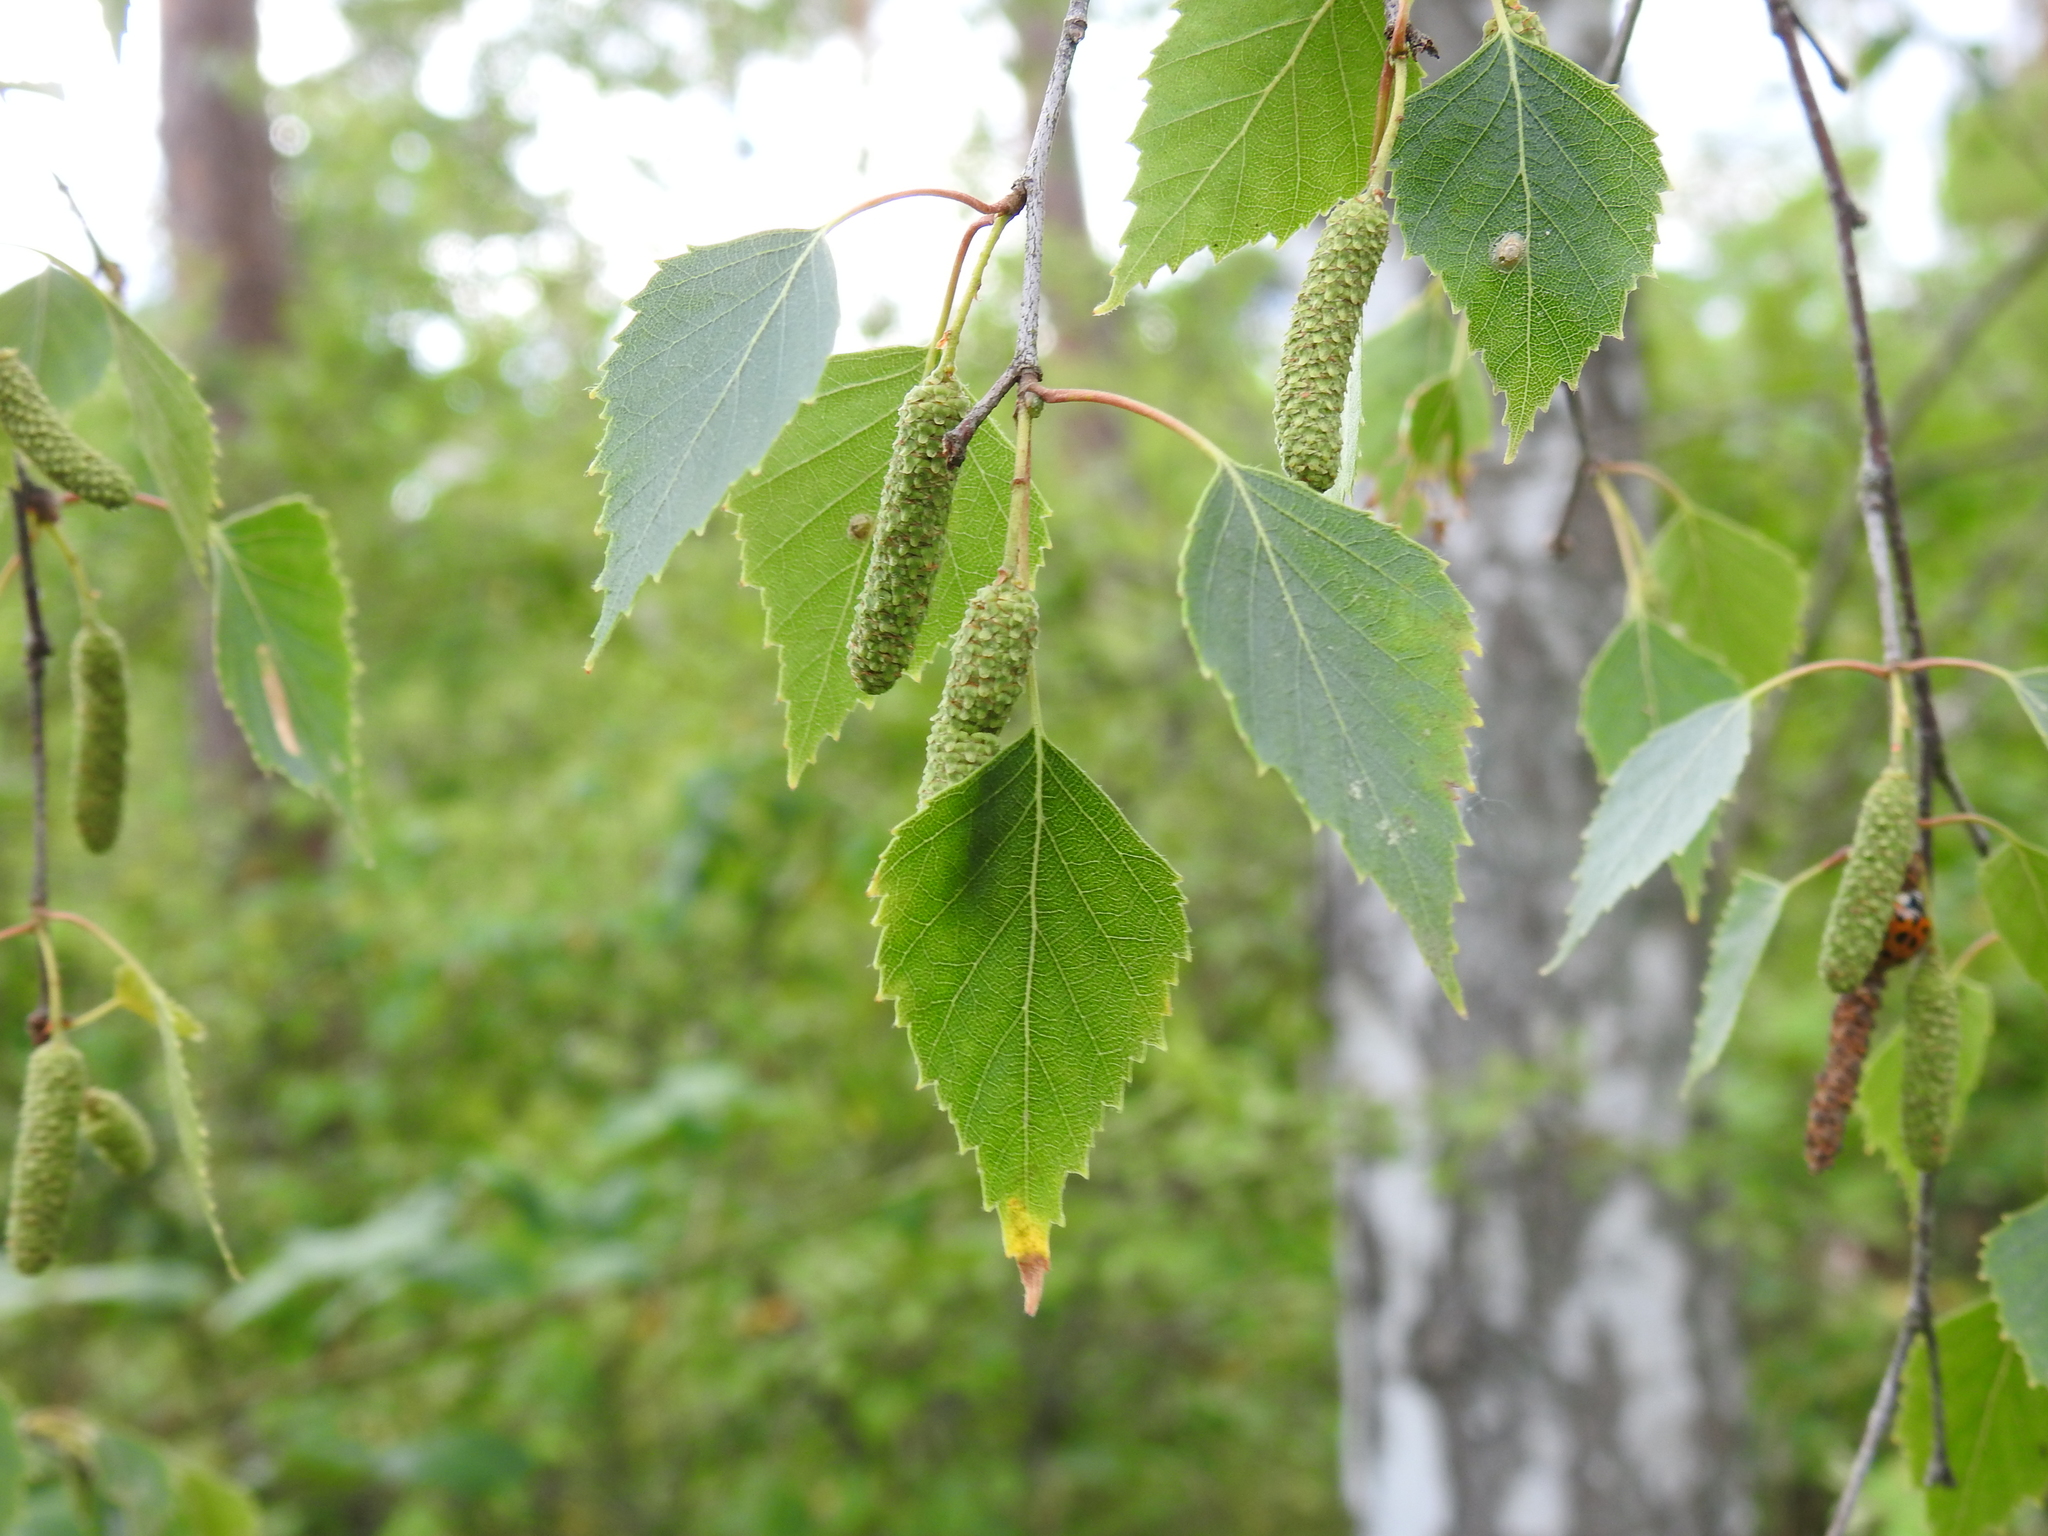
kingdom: Plantae
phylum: Tracheophyta
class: Magnoliopsida
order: Fagales
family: Betulaceae
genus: Betula
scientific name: Betula pendula
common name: Silver birch
